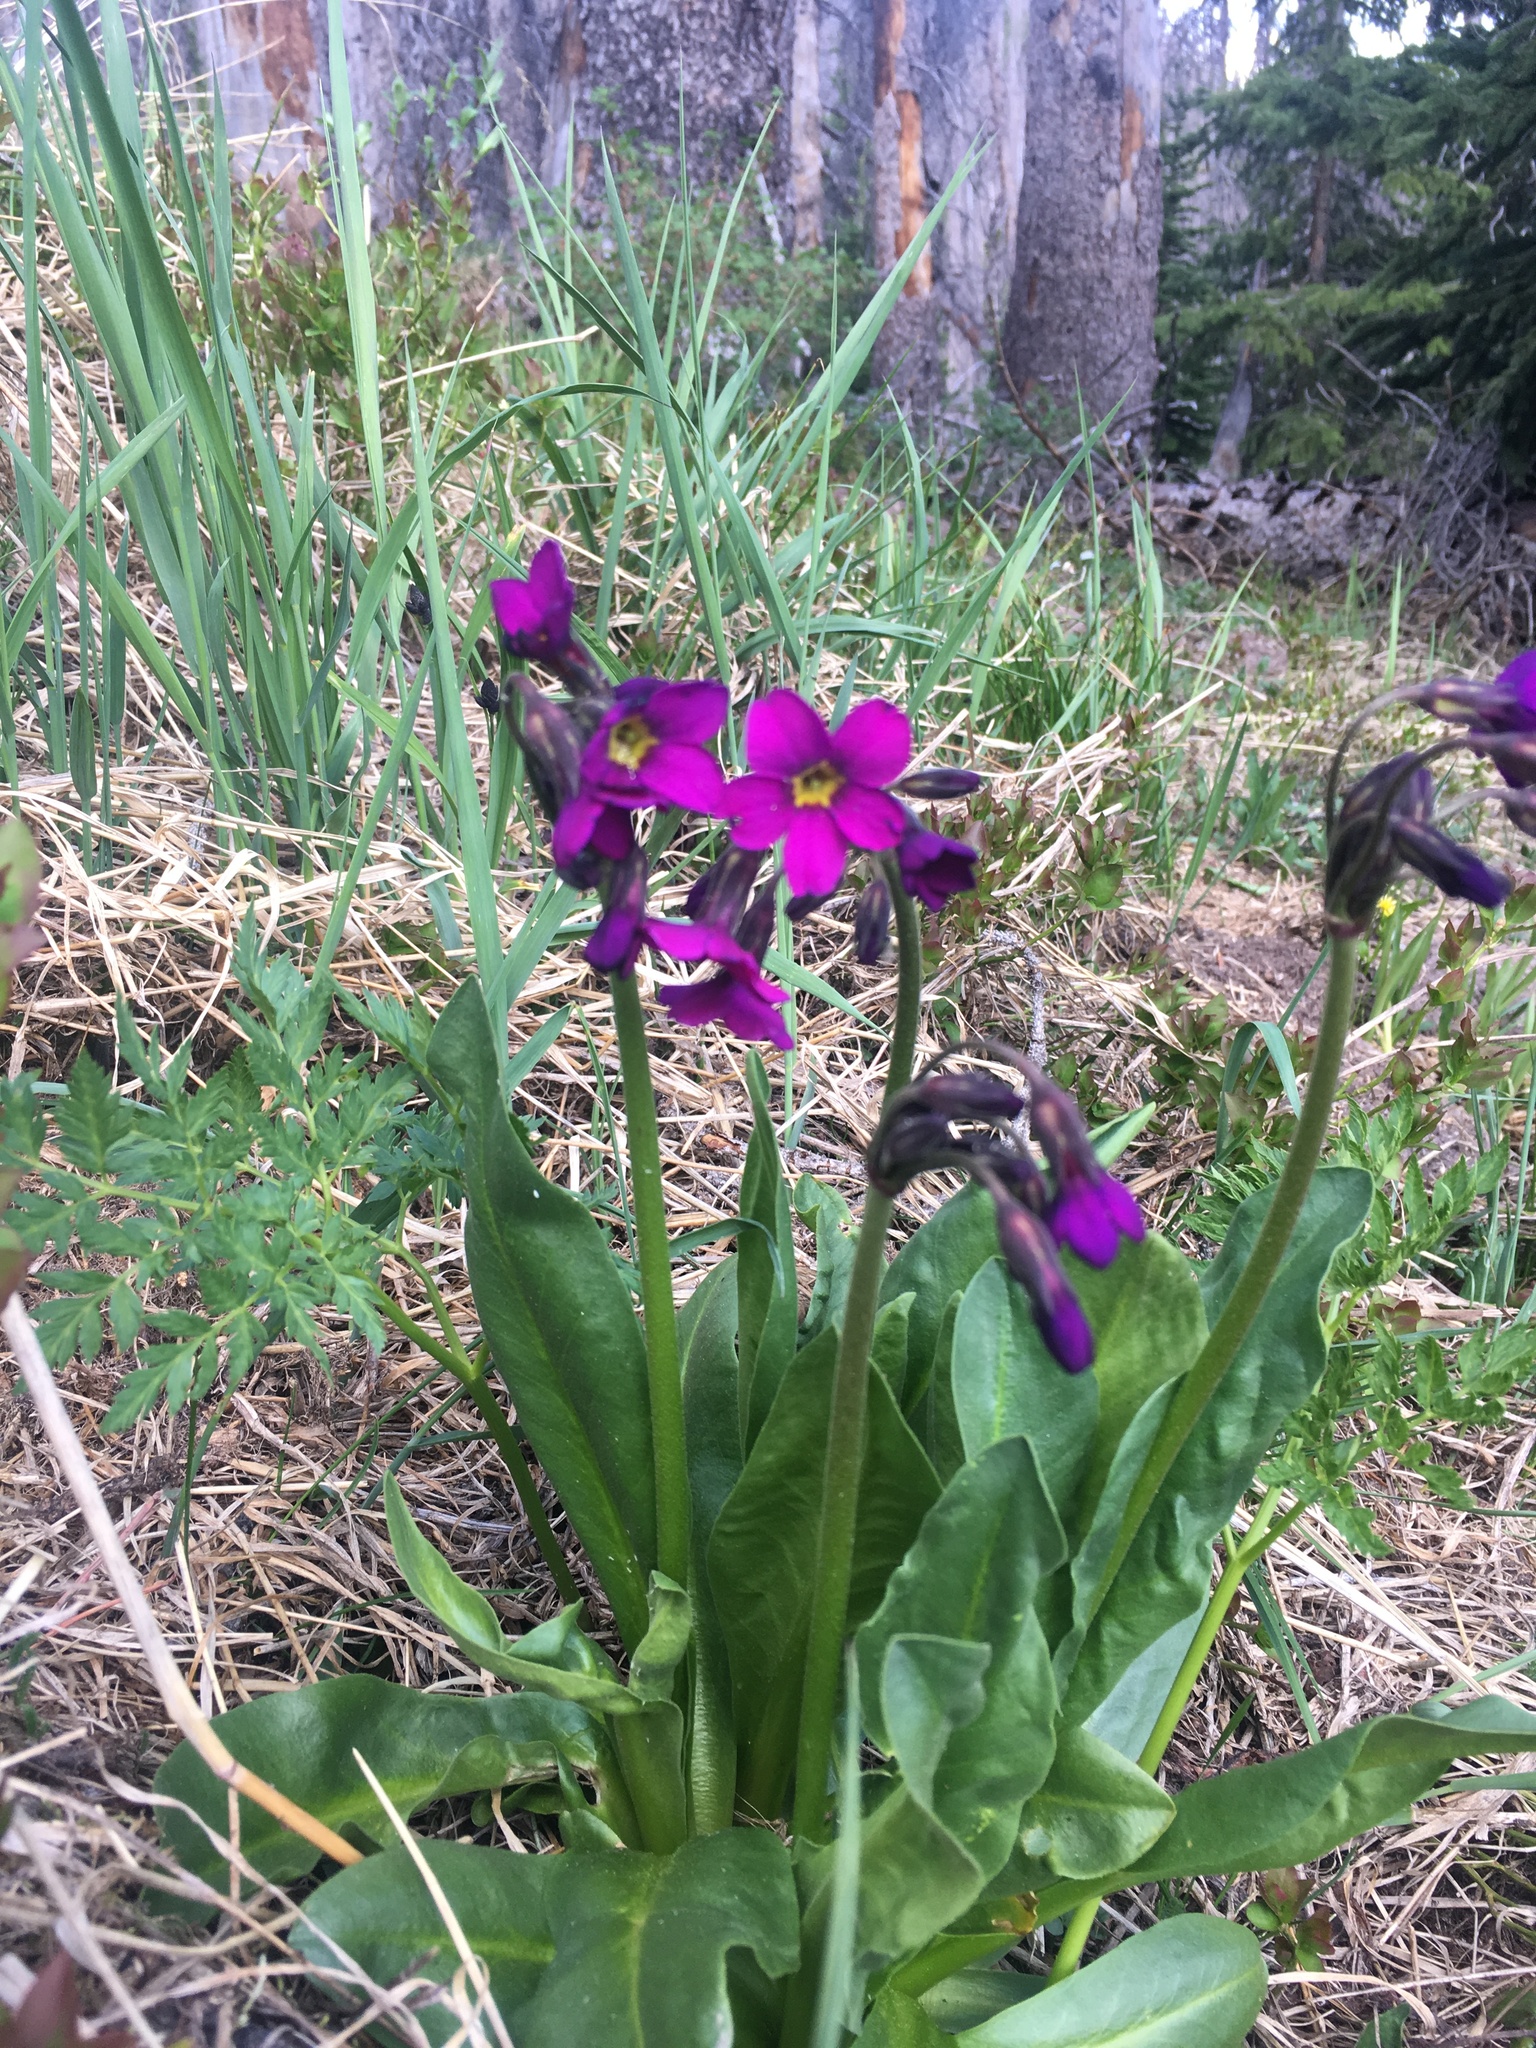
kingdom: Plantae
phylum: Tracheophyta
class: Magnoliopsida
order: Ericales
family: Primulaceae
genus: Primula
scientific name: Primula parryi
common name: Parry's primrose
